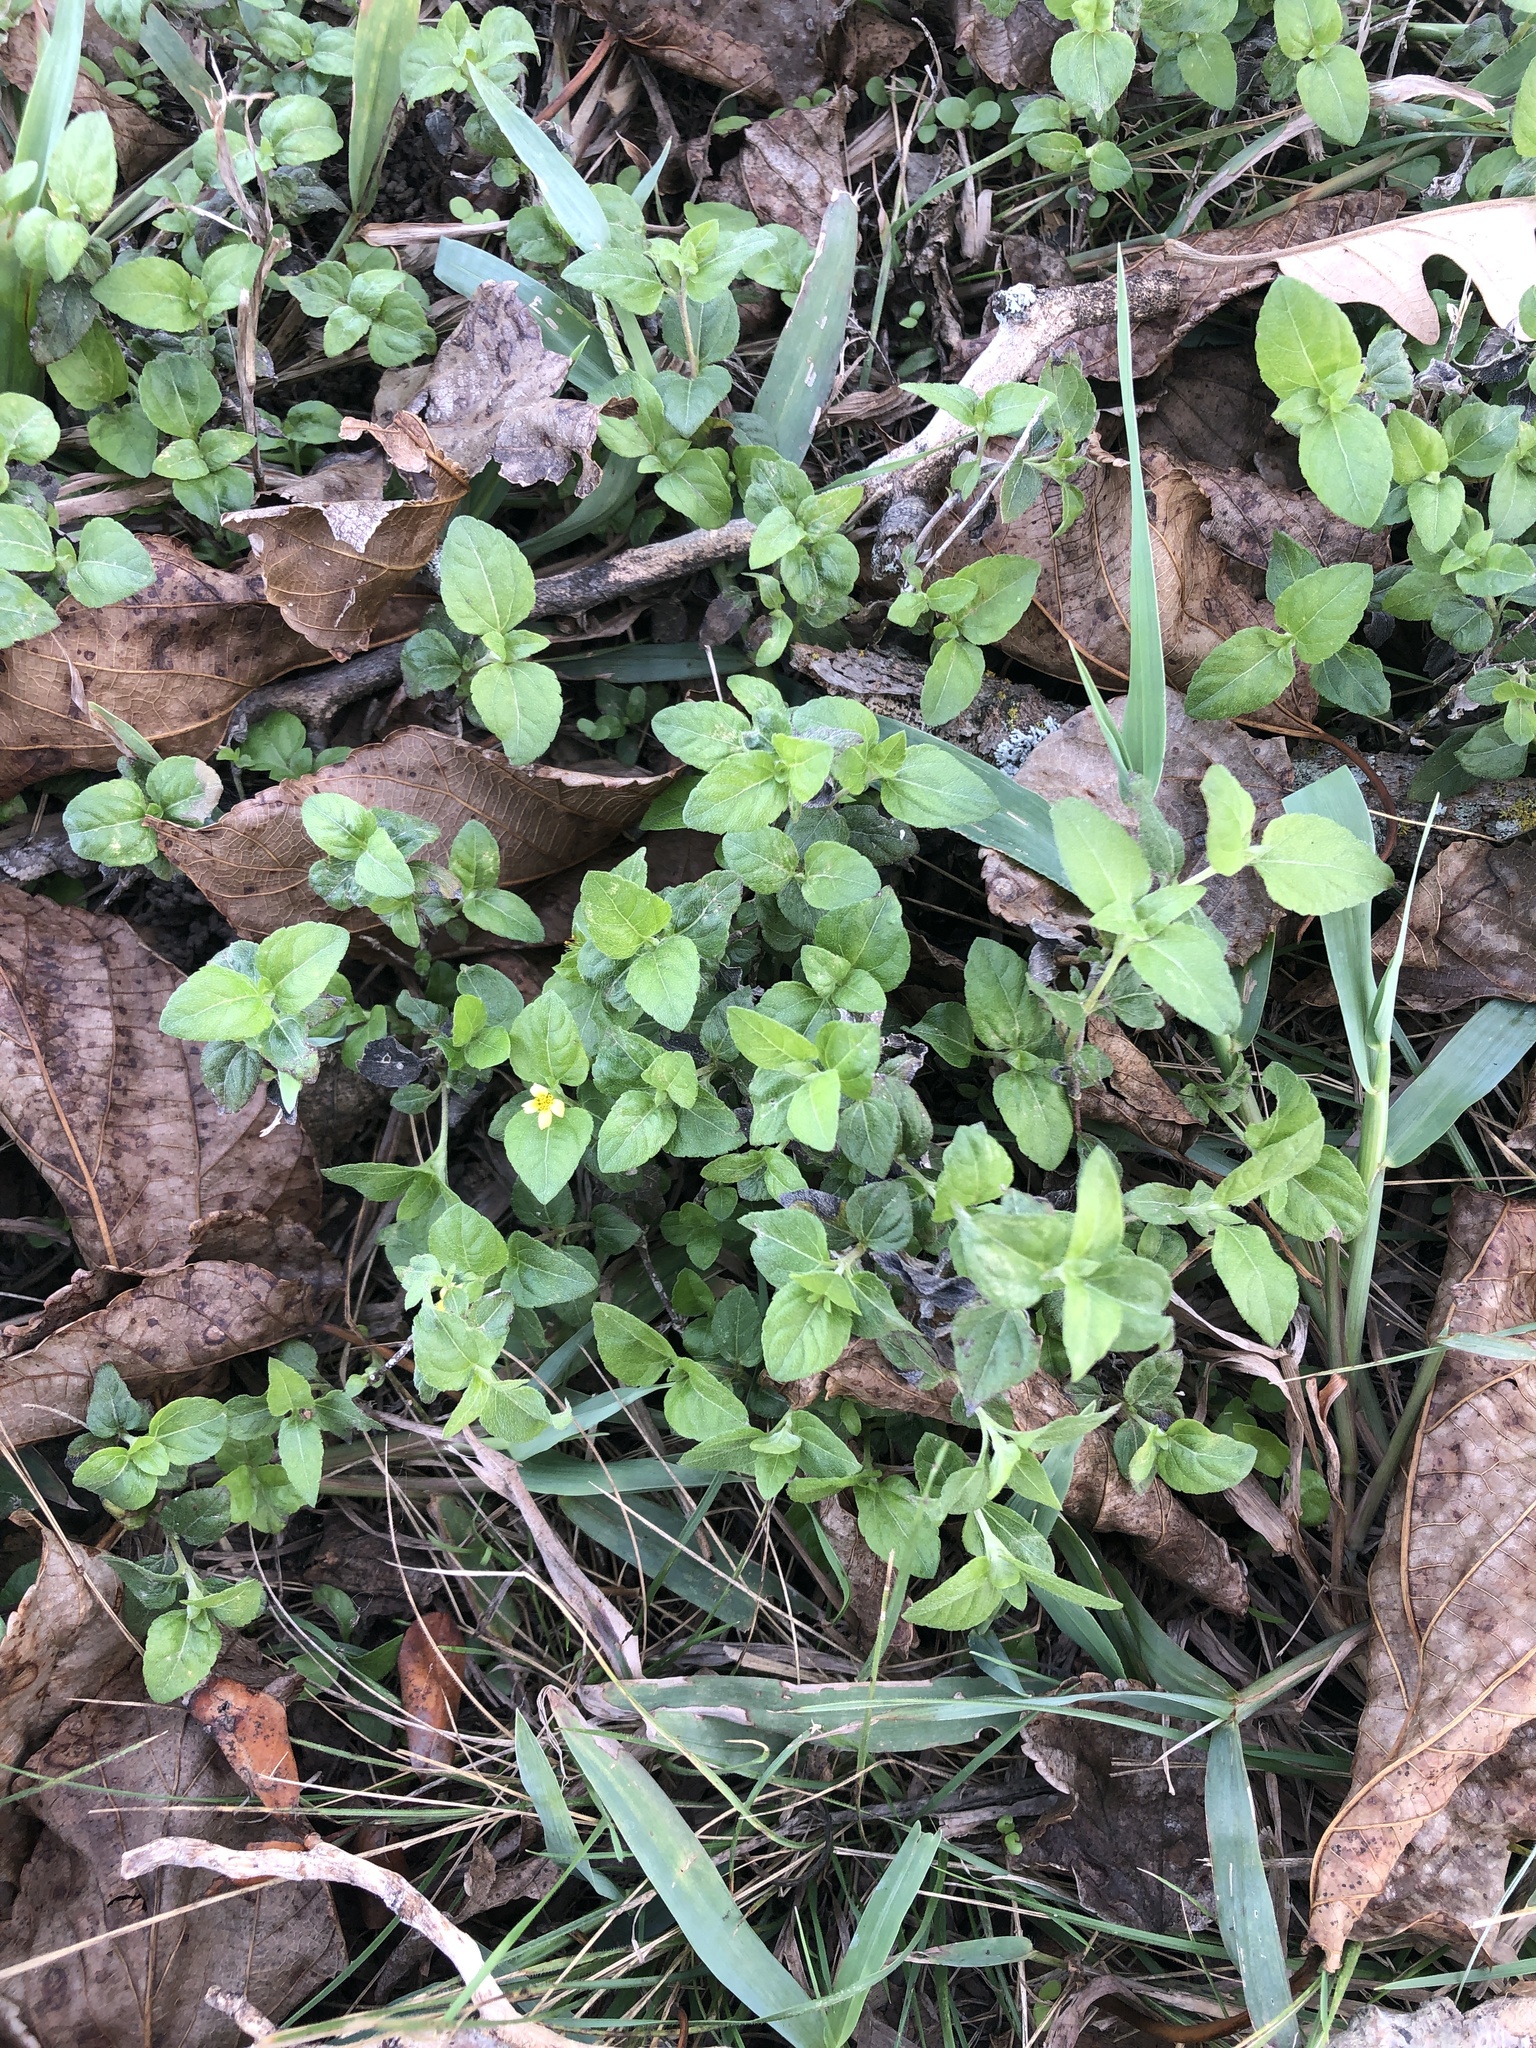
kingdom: Plantae
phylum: Tracheophyta
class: Magnoliopsida
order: Asterales
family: Asteraceae
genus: Calyptocarpus
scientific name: Calyptocarpus vialis
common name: Straggler daisy
